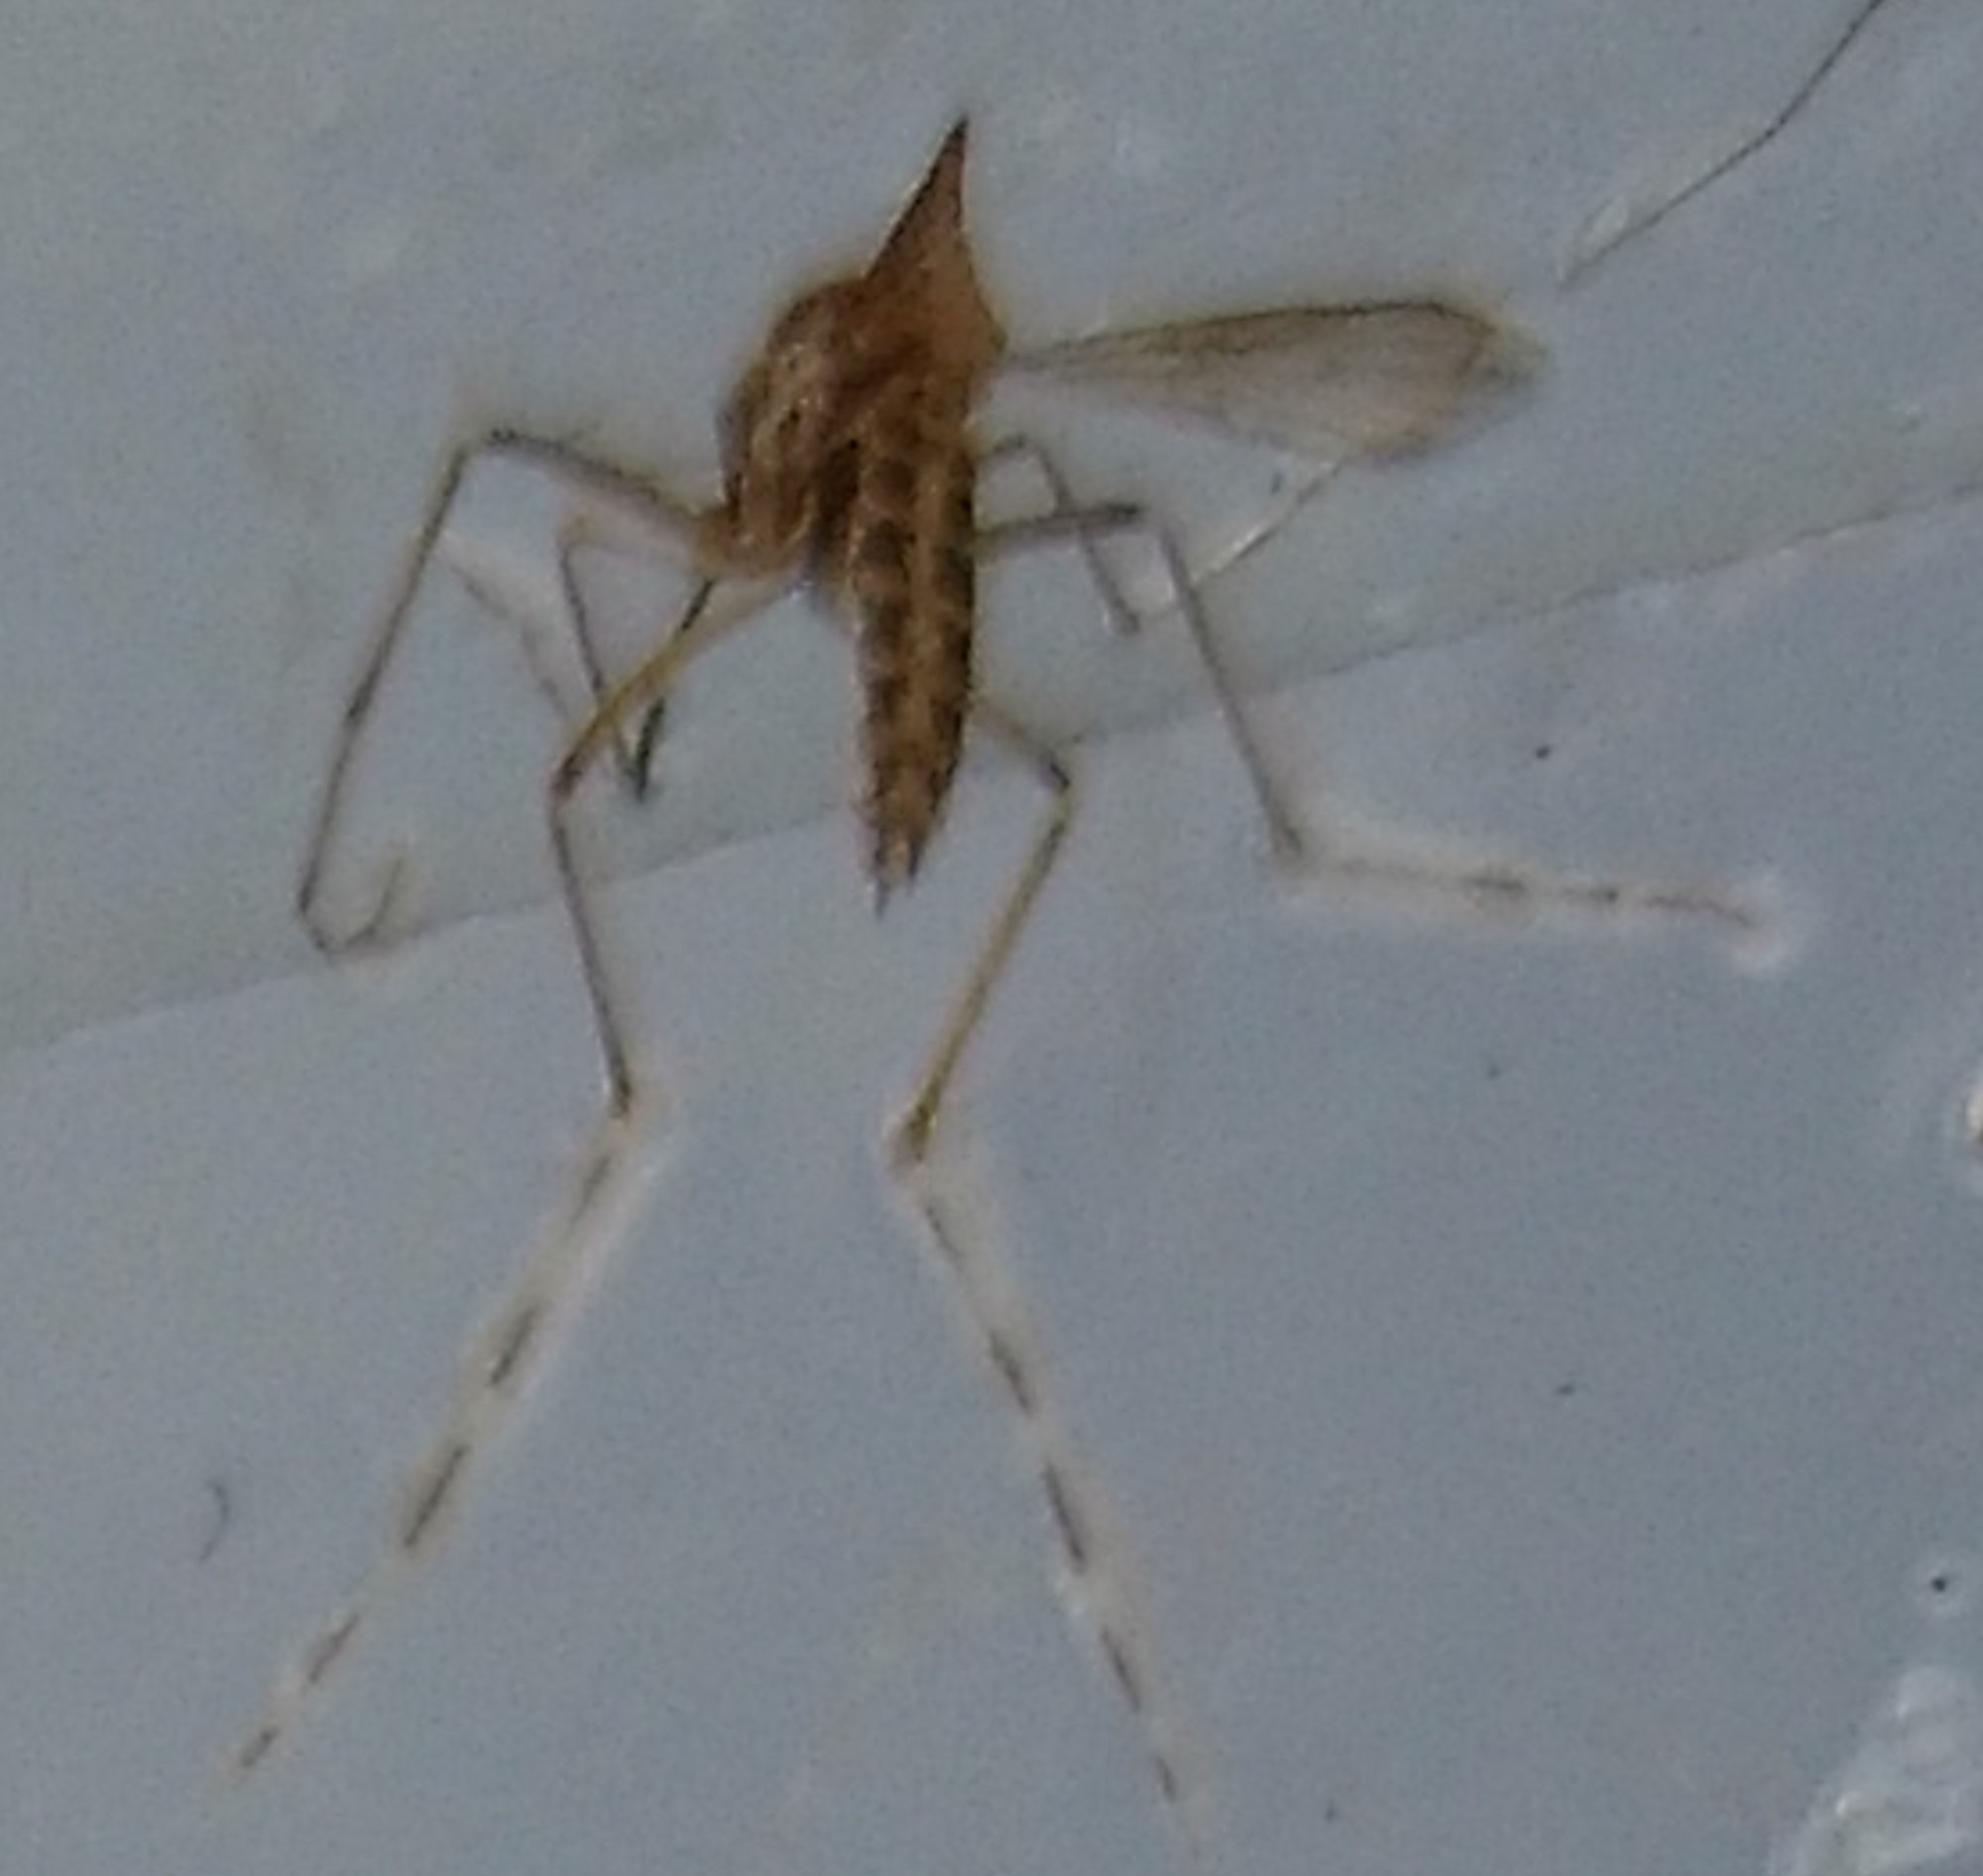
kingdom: Animalia
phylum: Arthropoda
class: Insecta
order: Diptera
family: Culicidae
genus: Aedes
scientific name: Aedes sollicitans
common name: Saltmarsh mosquito
